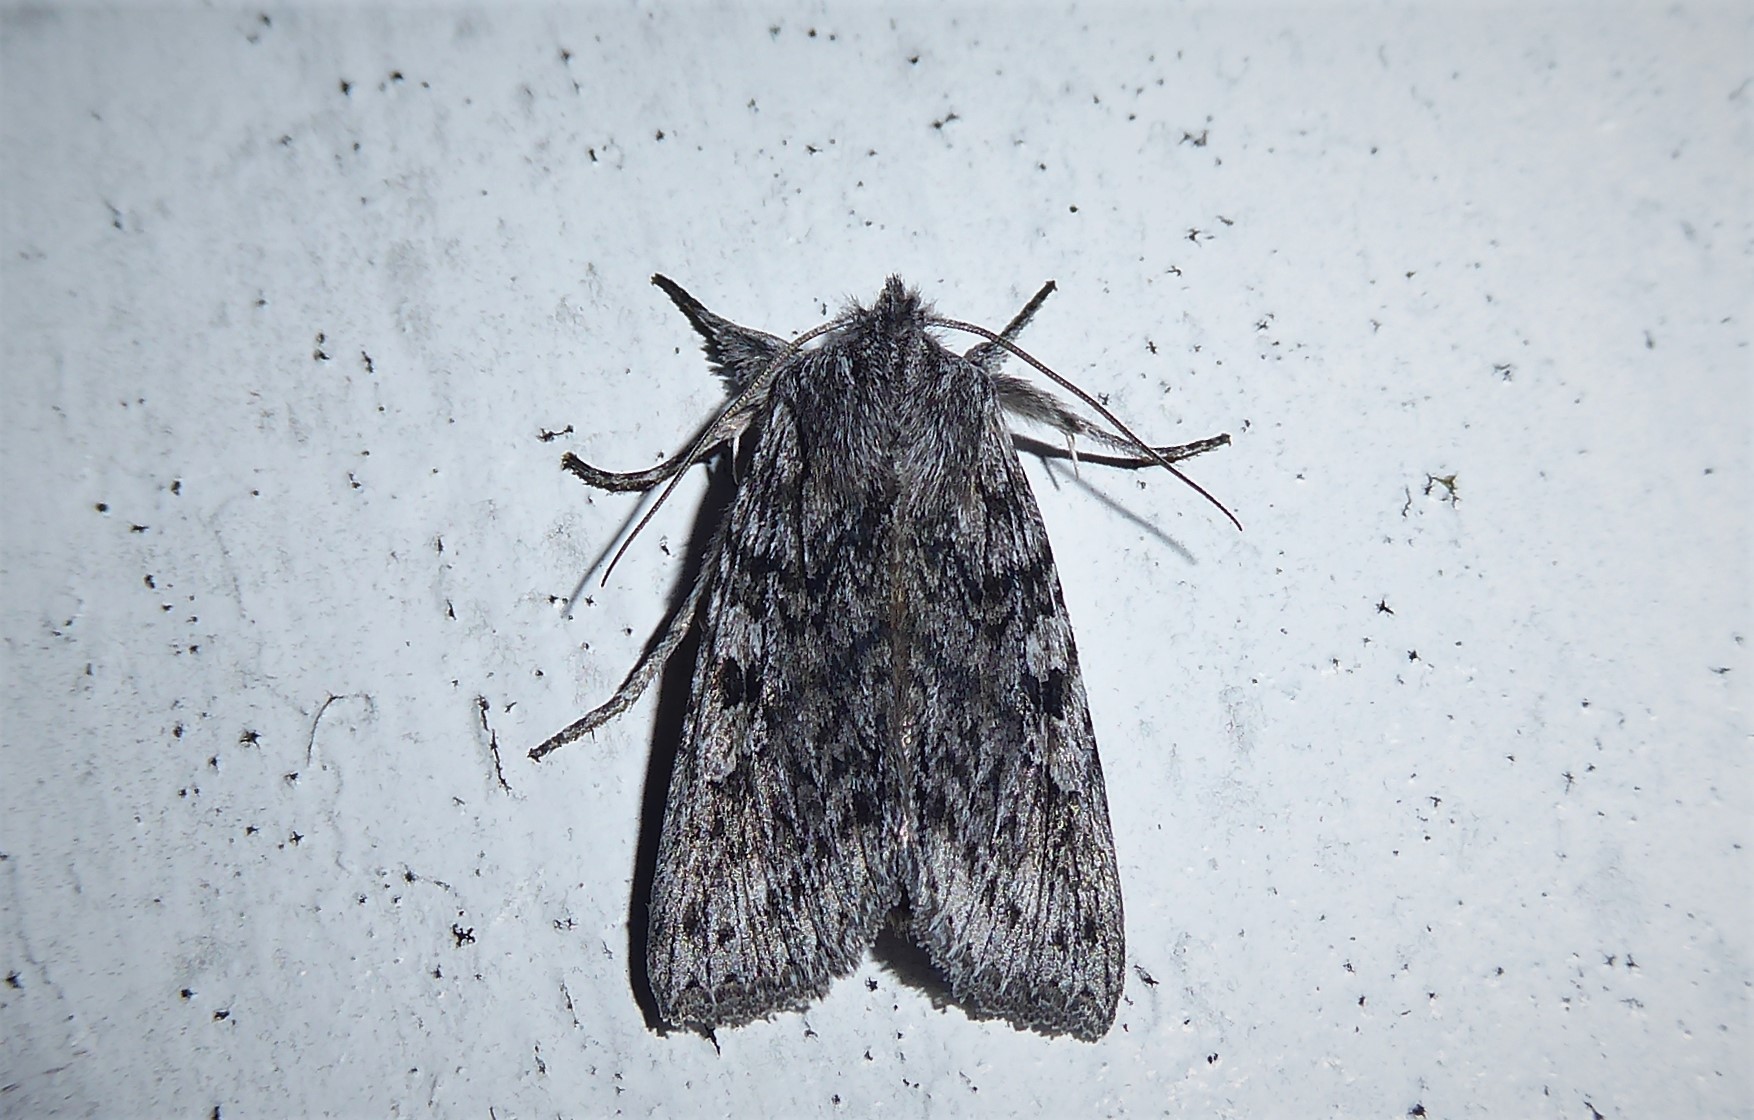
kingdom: Animalia
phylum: Arthropoda
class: Insecta
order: Lepidoptera
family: Noctuidae
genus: Physetica
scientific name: Physetica phricias
